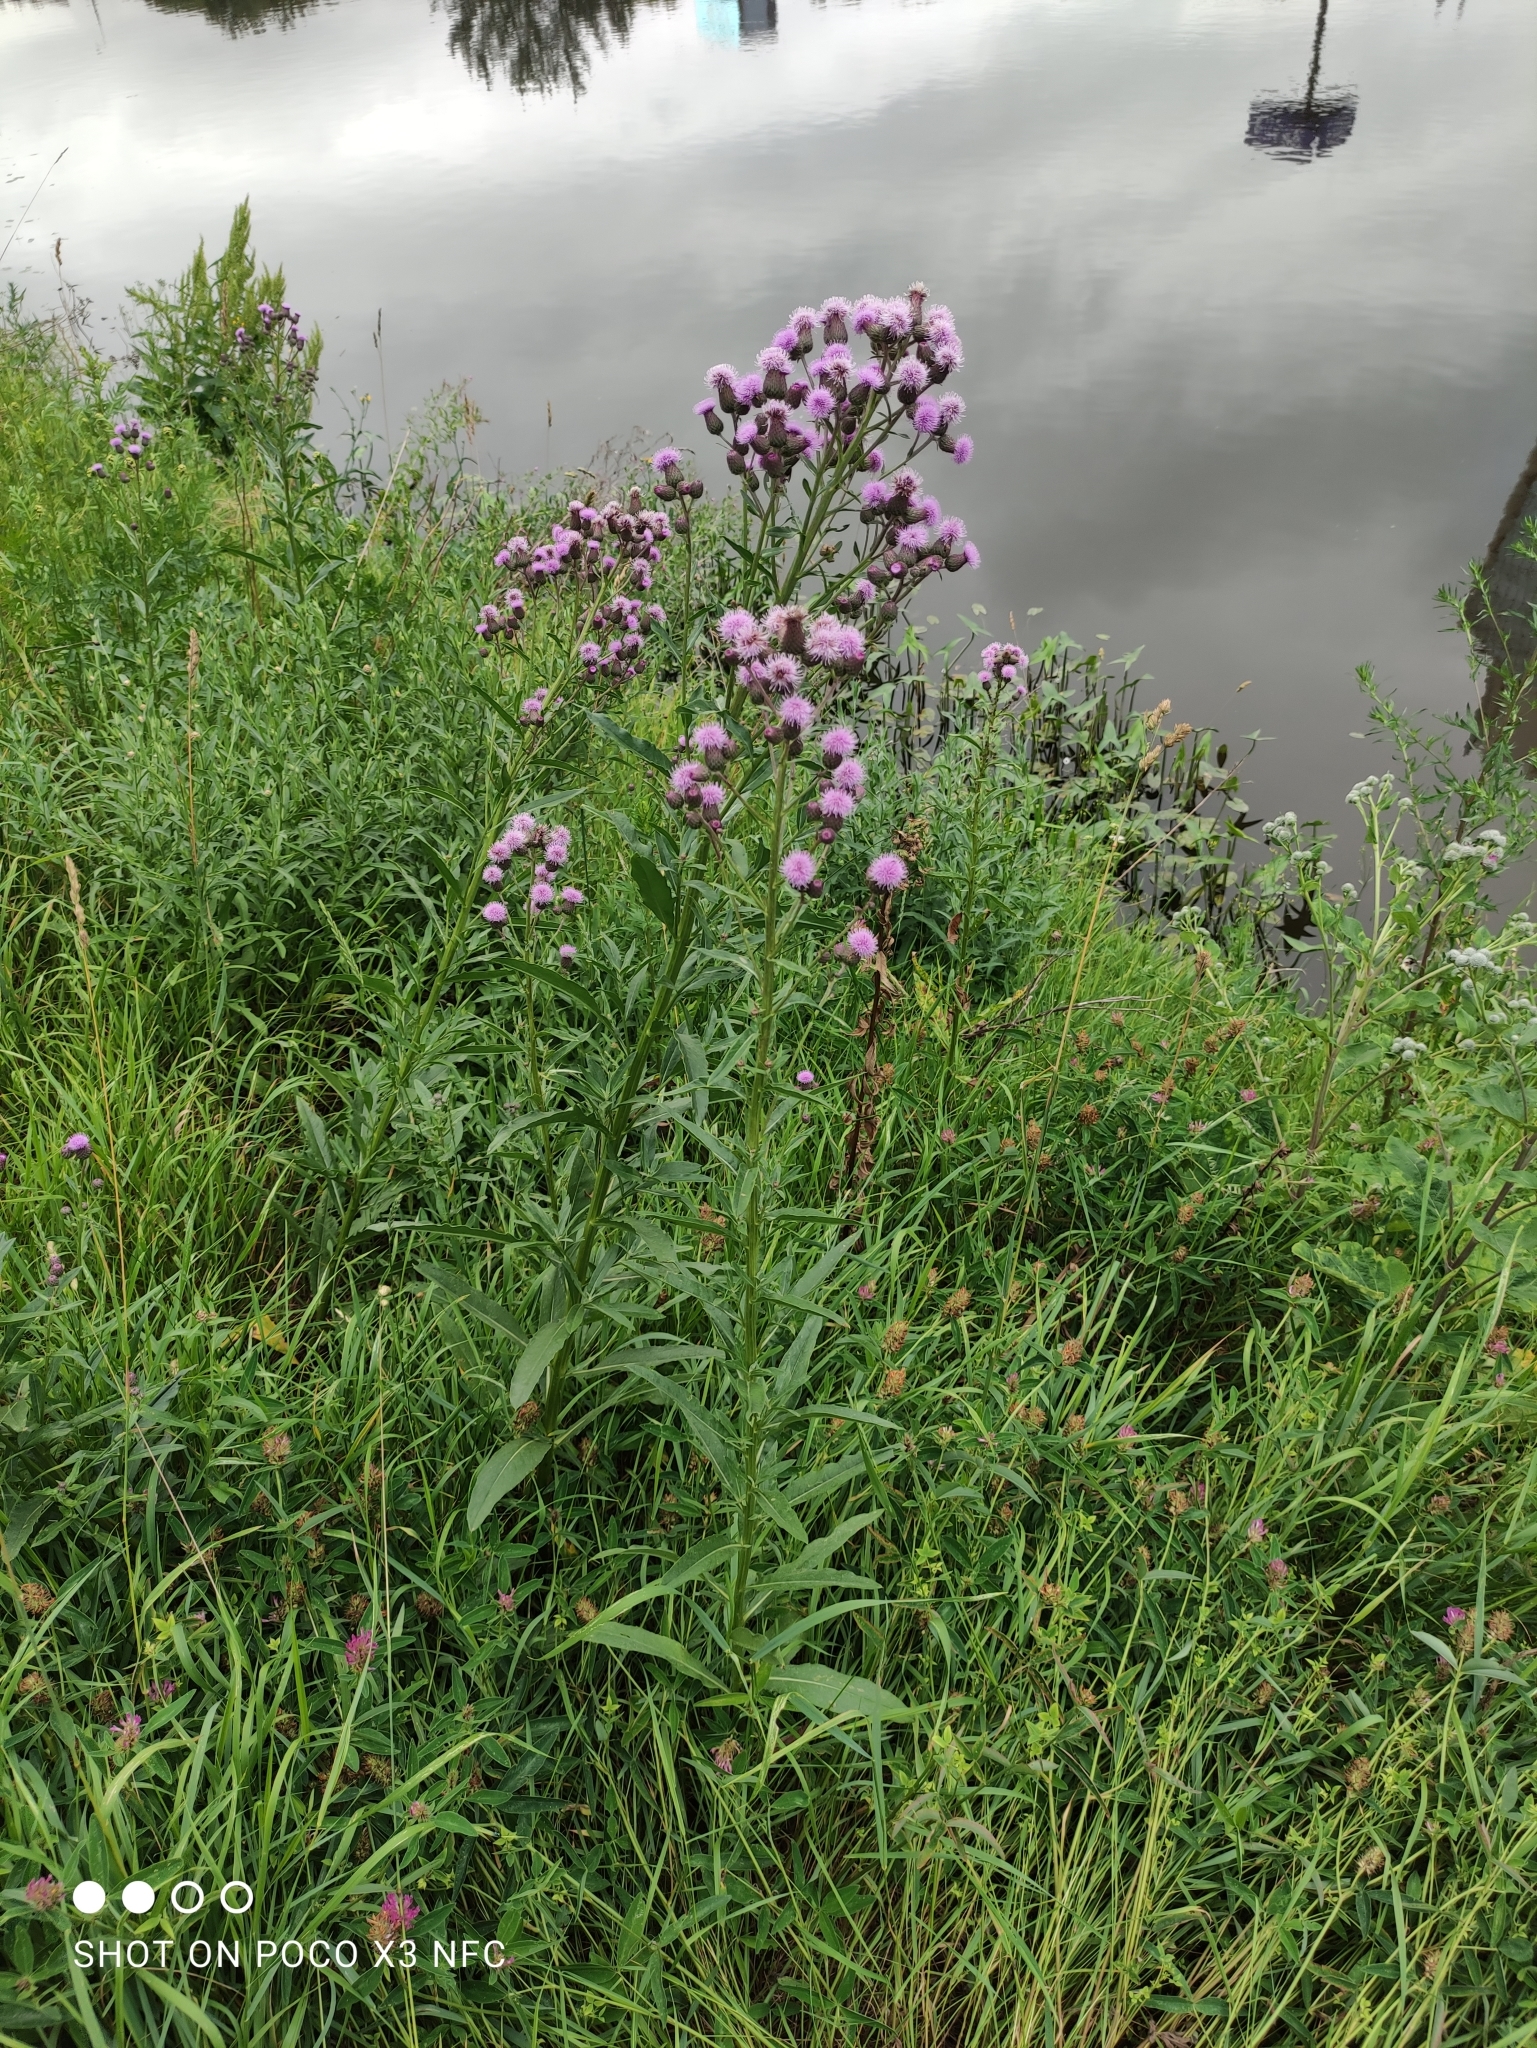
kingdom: Plantae
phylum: Tracheophyta
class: Magnoliopsida
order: Asterales
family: Asteraceae
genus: Cirsium
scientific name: Cirsium arvense
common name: Creeping thistle
